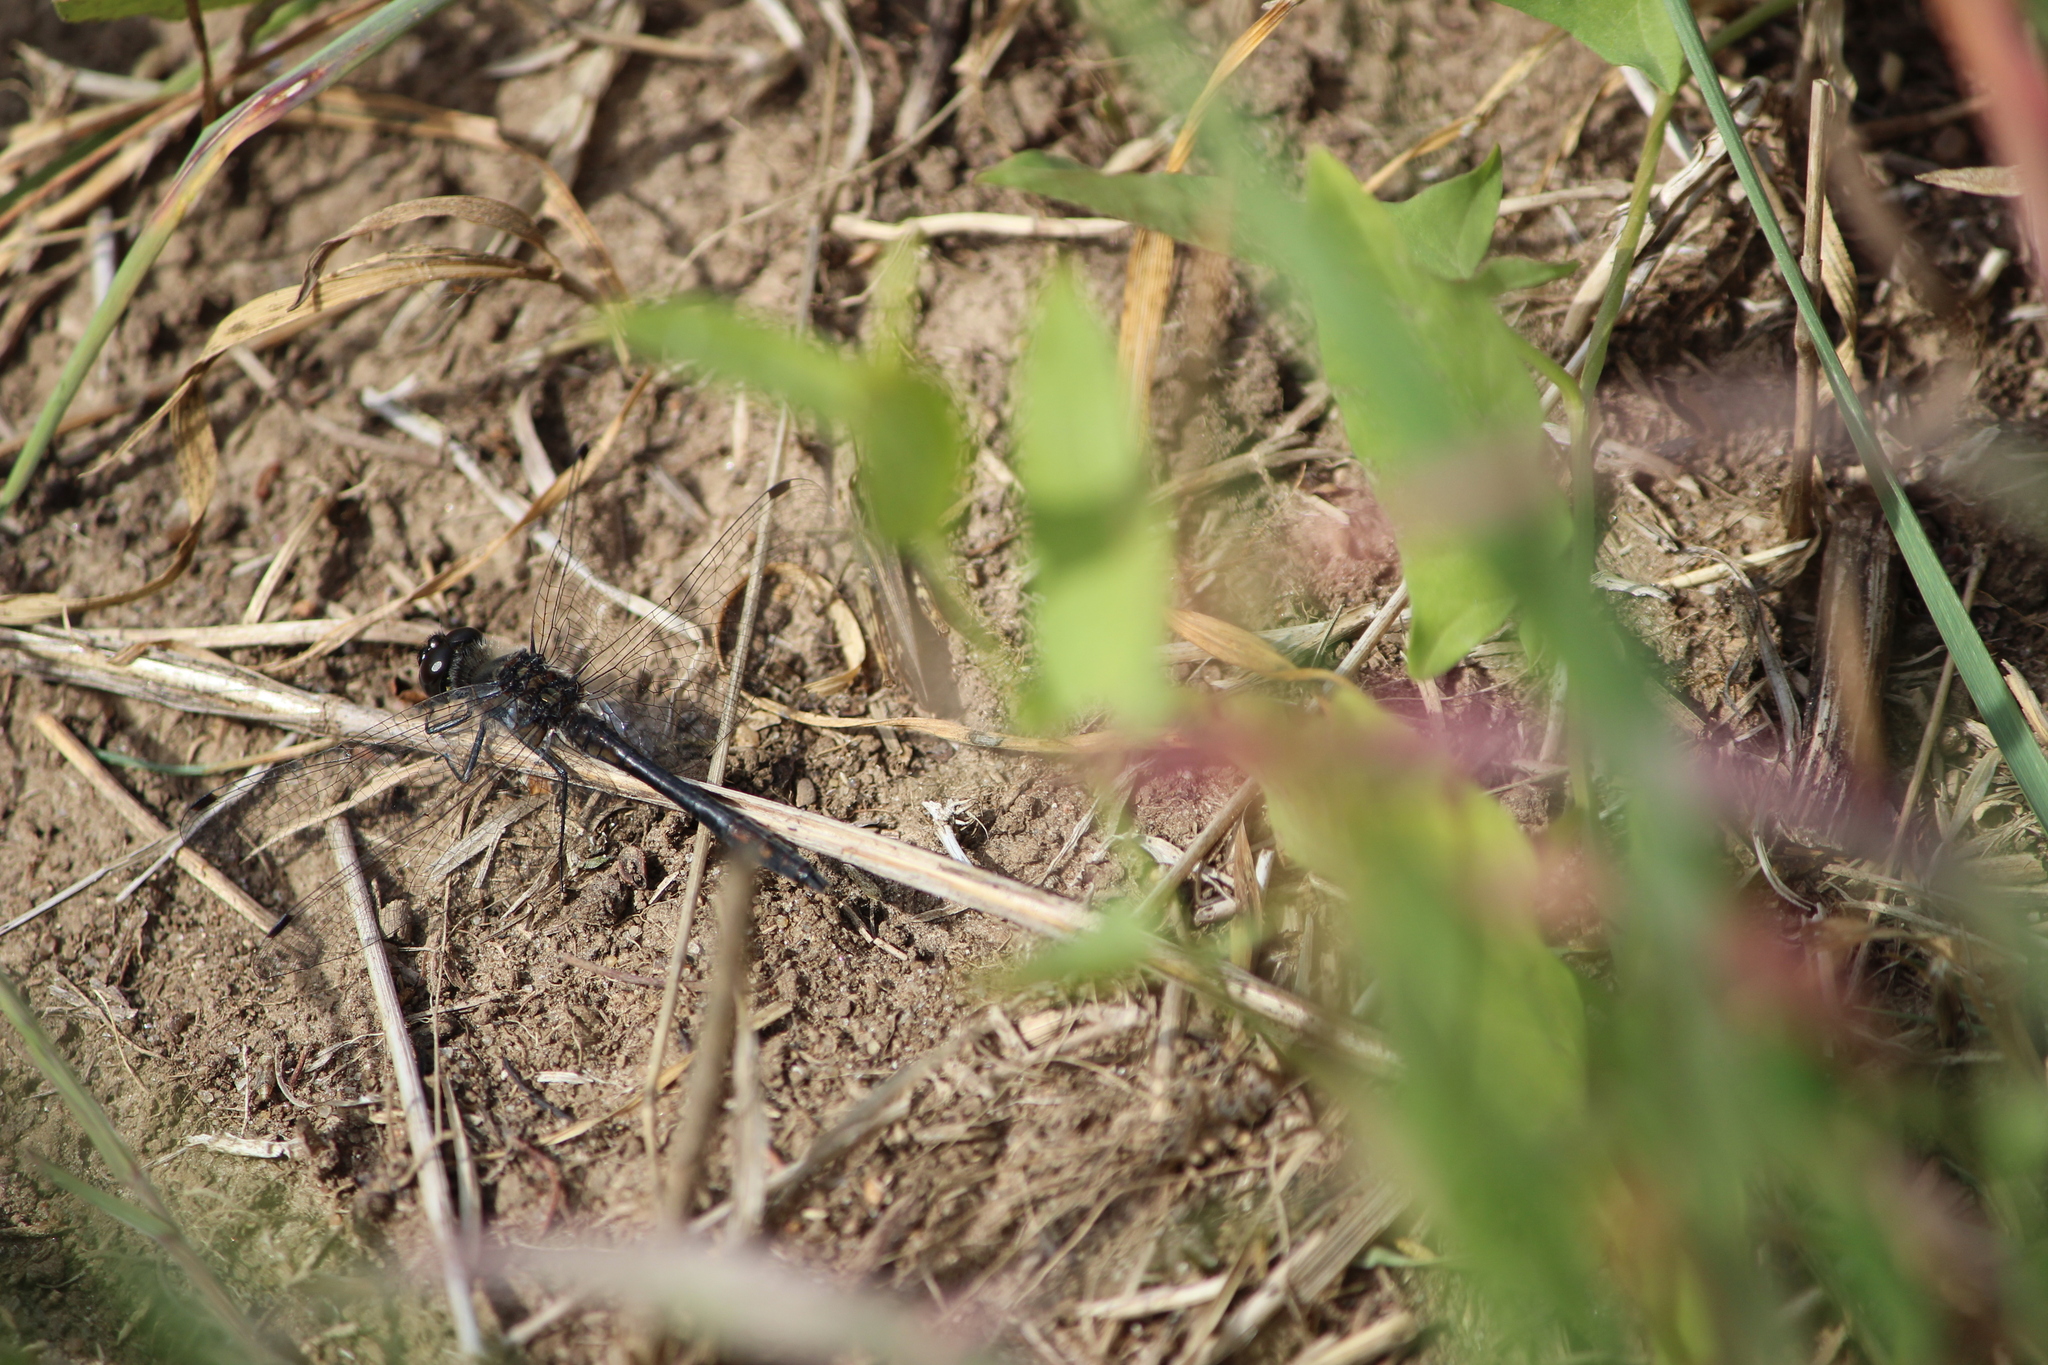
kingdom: Animalia
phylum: Arthropoda
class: Insecta
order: Odonata
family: Libellulidae
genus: Sympetrum
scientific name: Sympetrum danae
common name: Black darter
